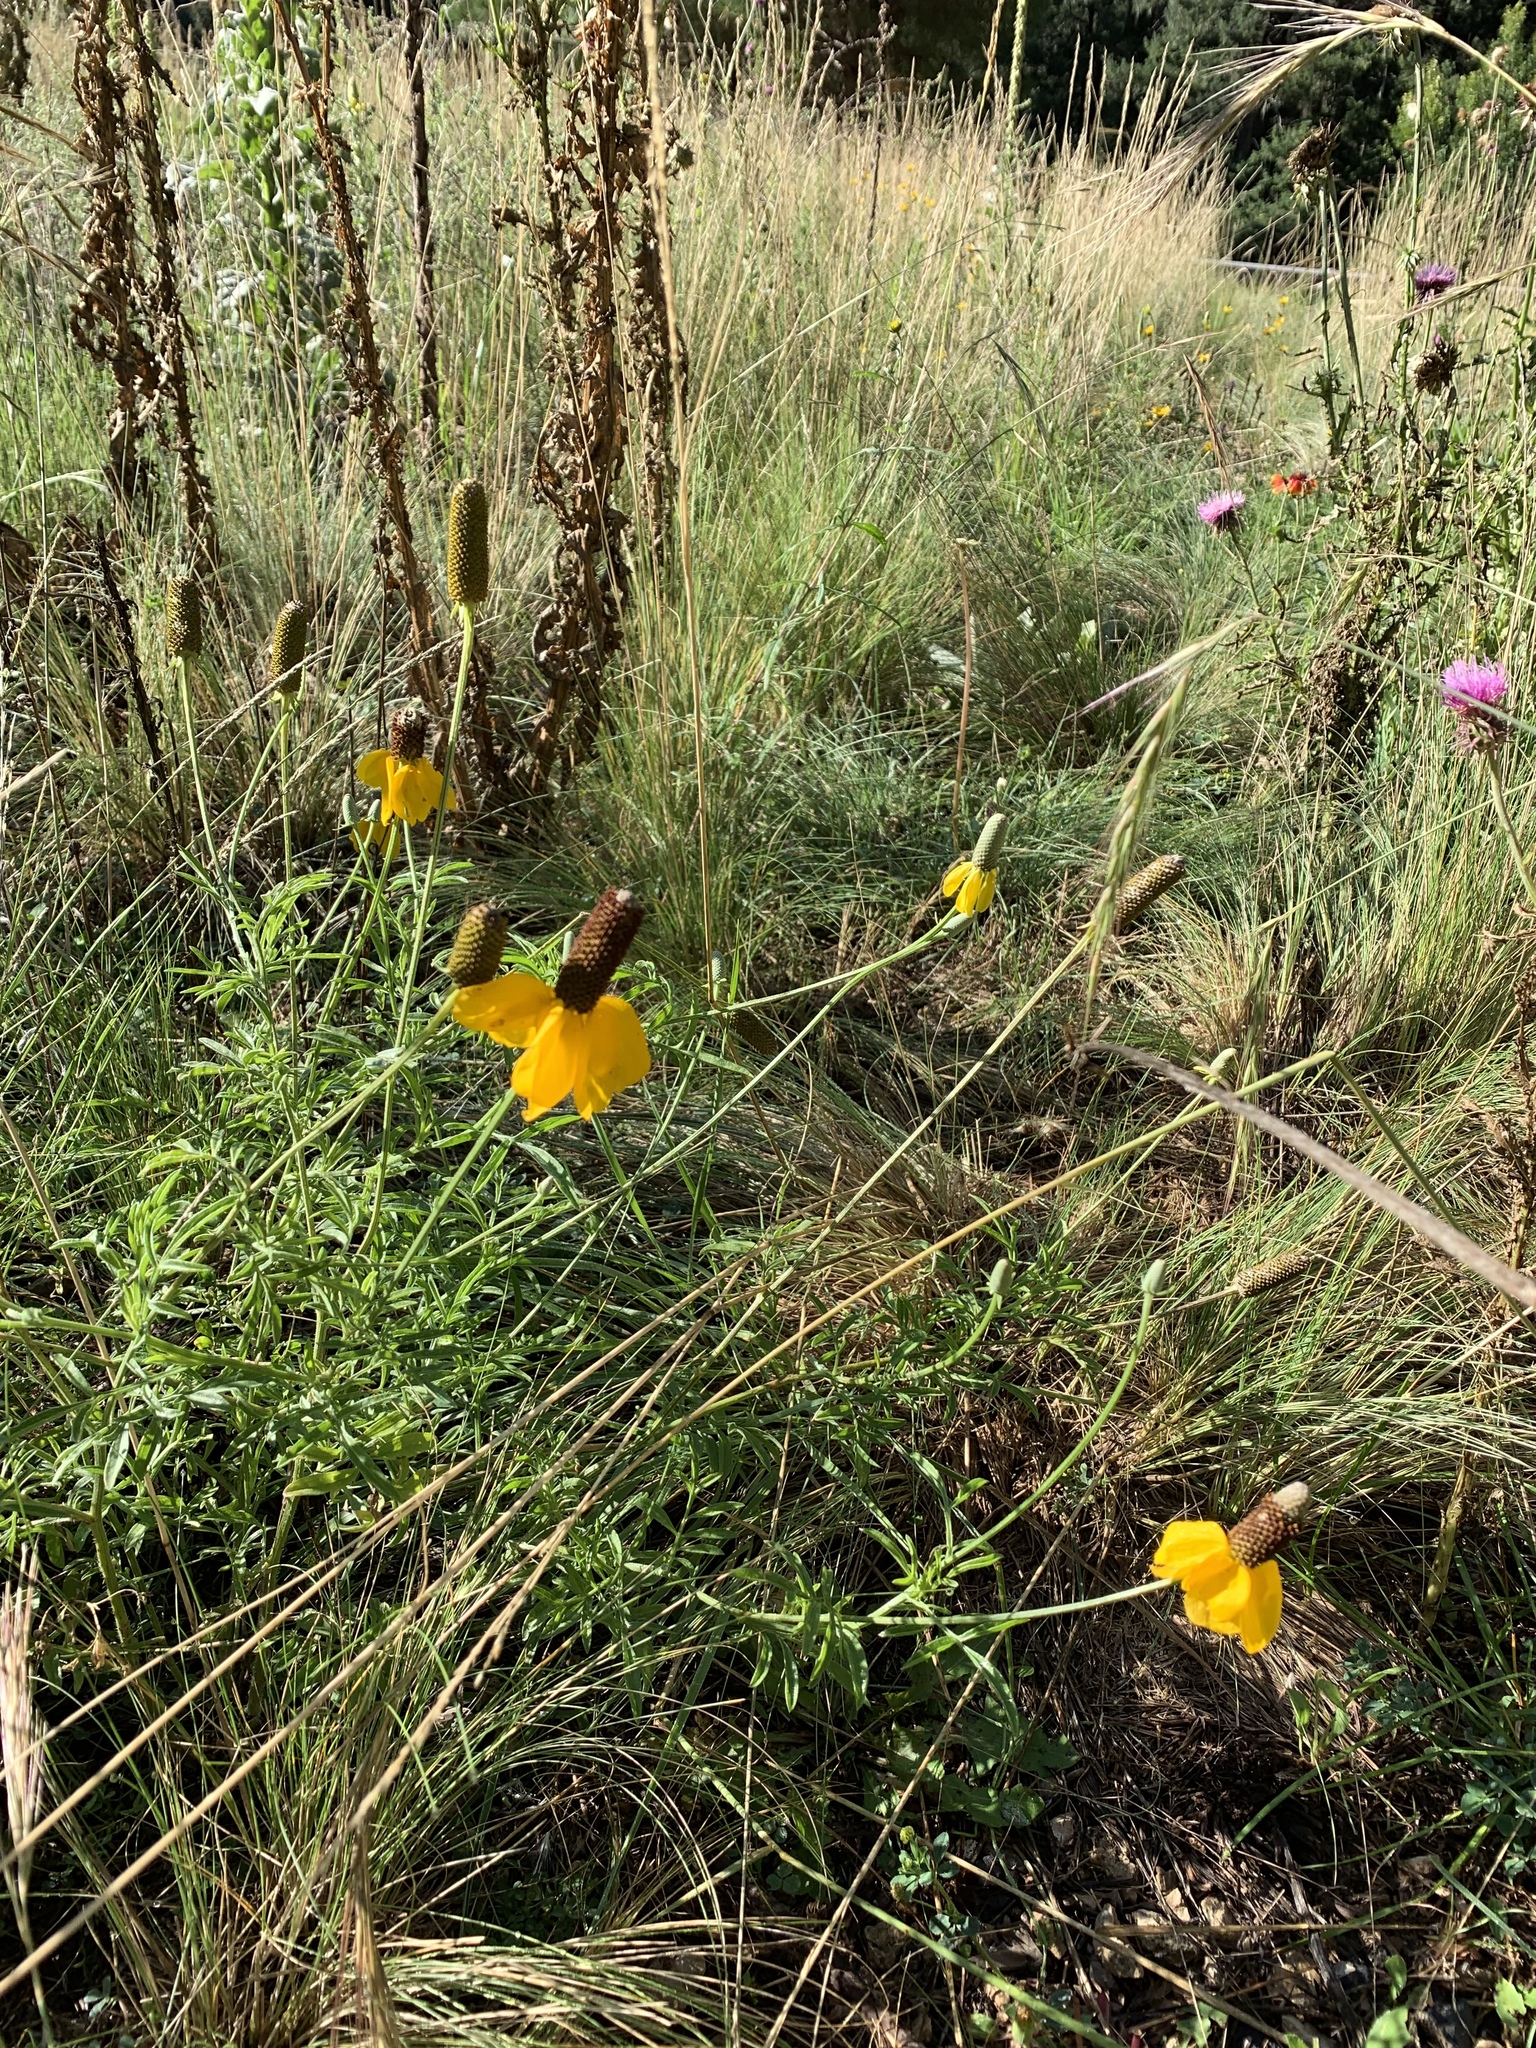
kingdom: Plantae
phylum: Tracheophyta
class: Magnoliopsida
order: Asterales
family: Asteraceae
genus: Ratibida
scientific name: Ratibida columnifera
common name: Prairie coneflower
